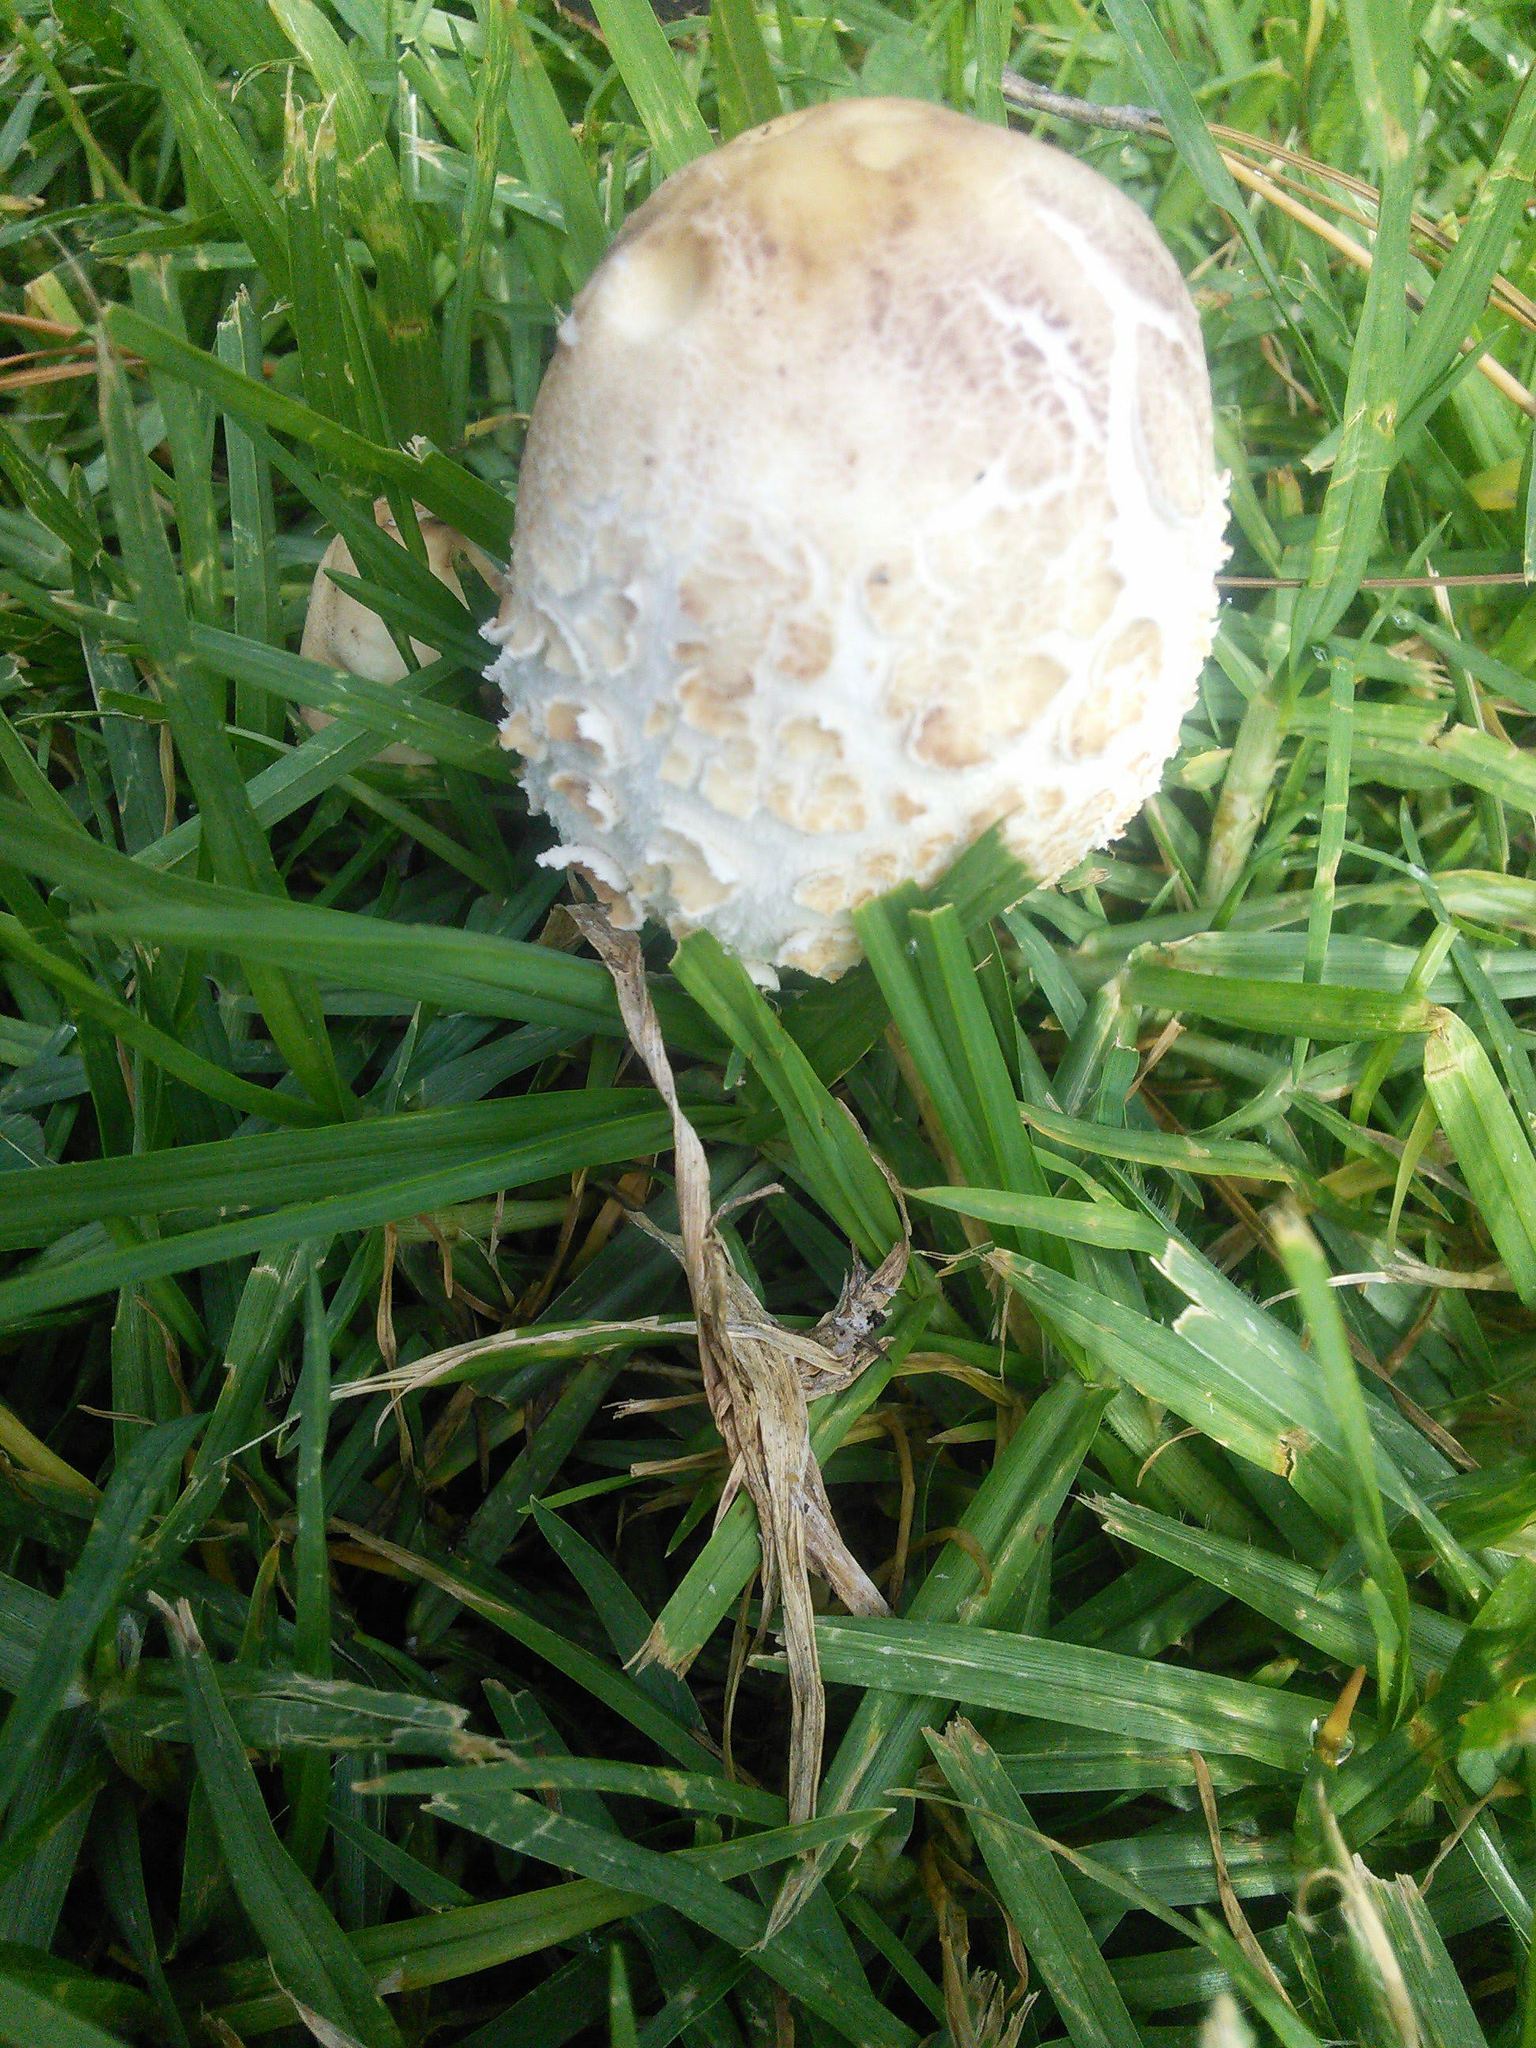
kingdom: Fungi
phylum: Basidiomycota
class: Agaricomycetes
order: Agaricales
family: Agaricaceae
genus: Chlorophyllum
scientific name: Chlorophyllum molybdites
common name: False parasol
